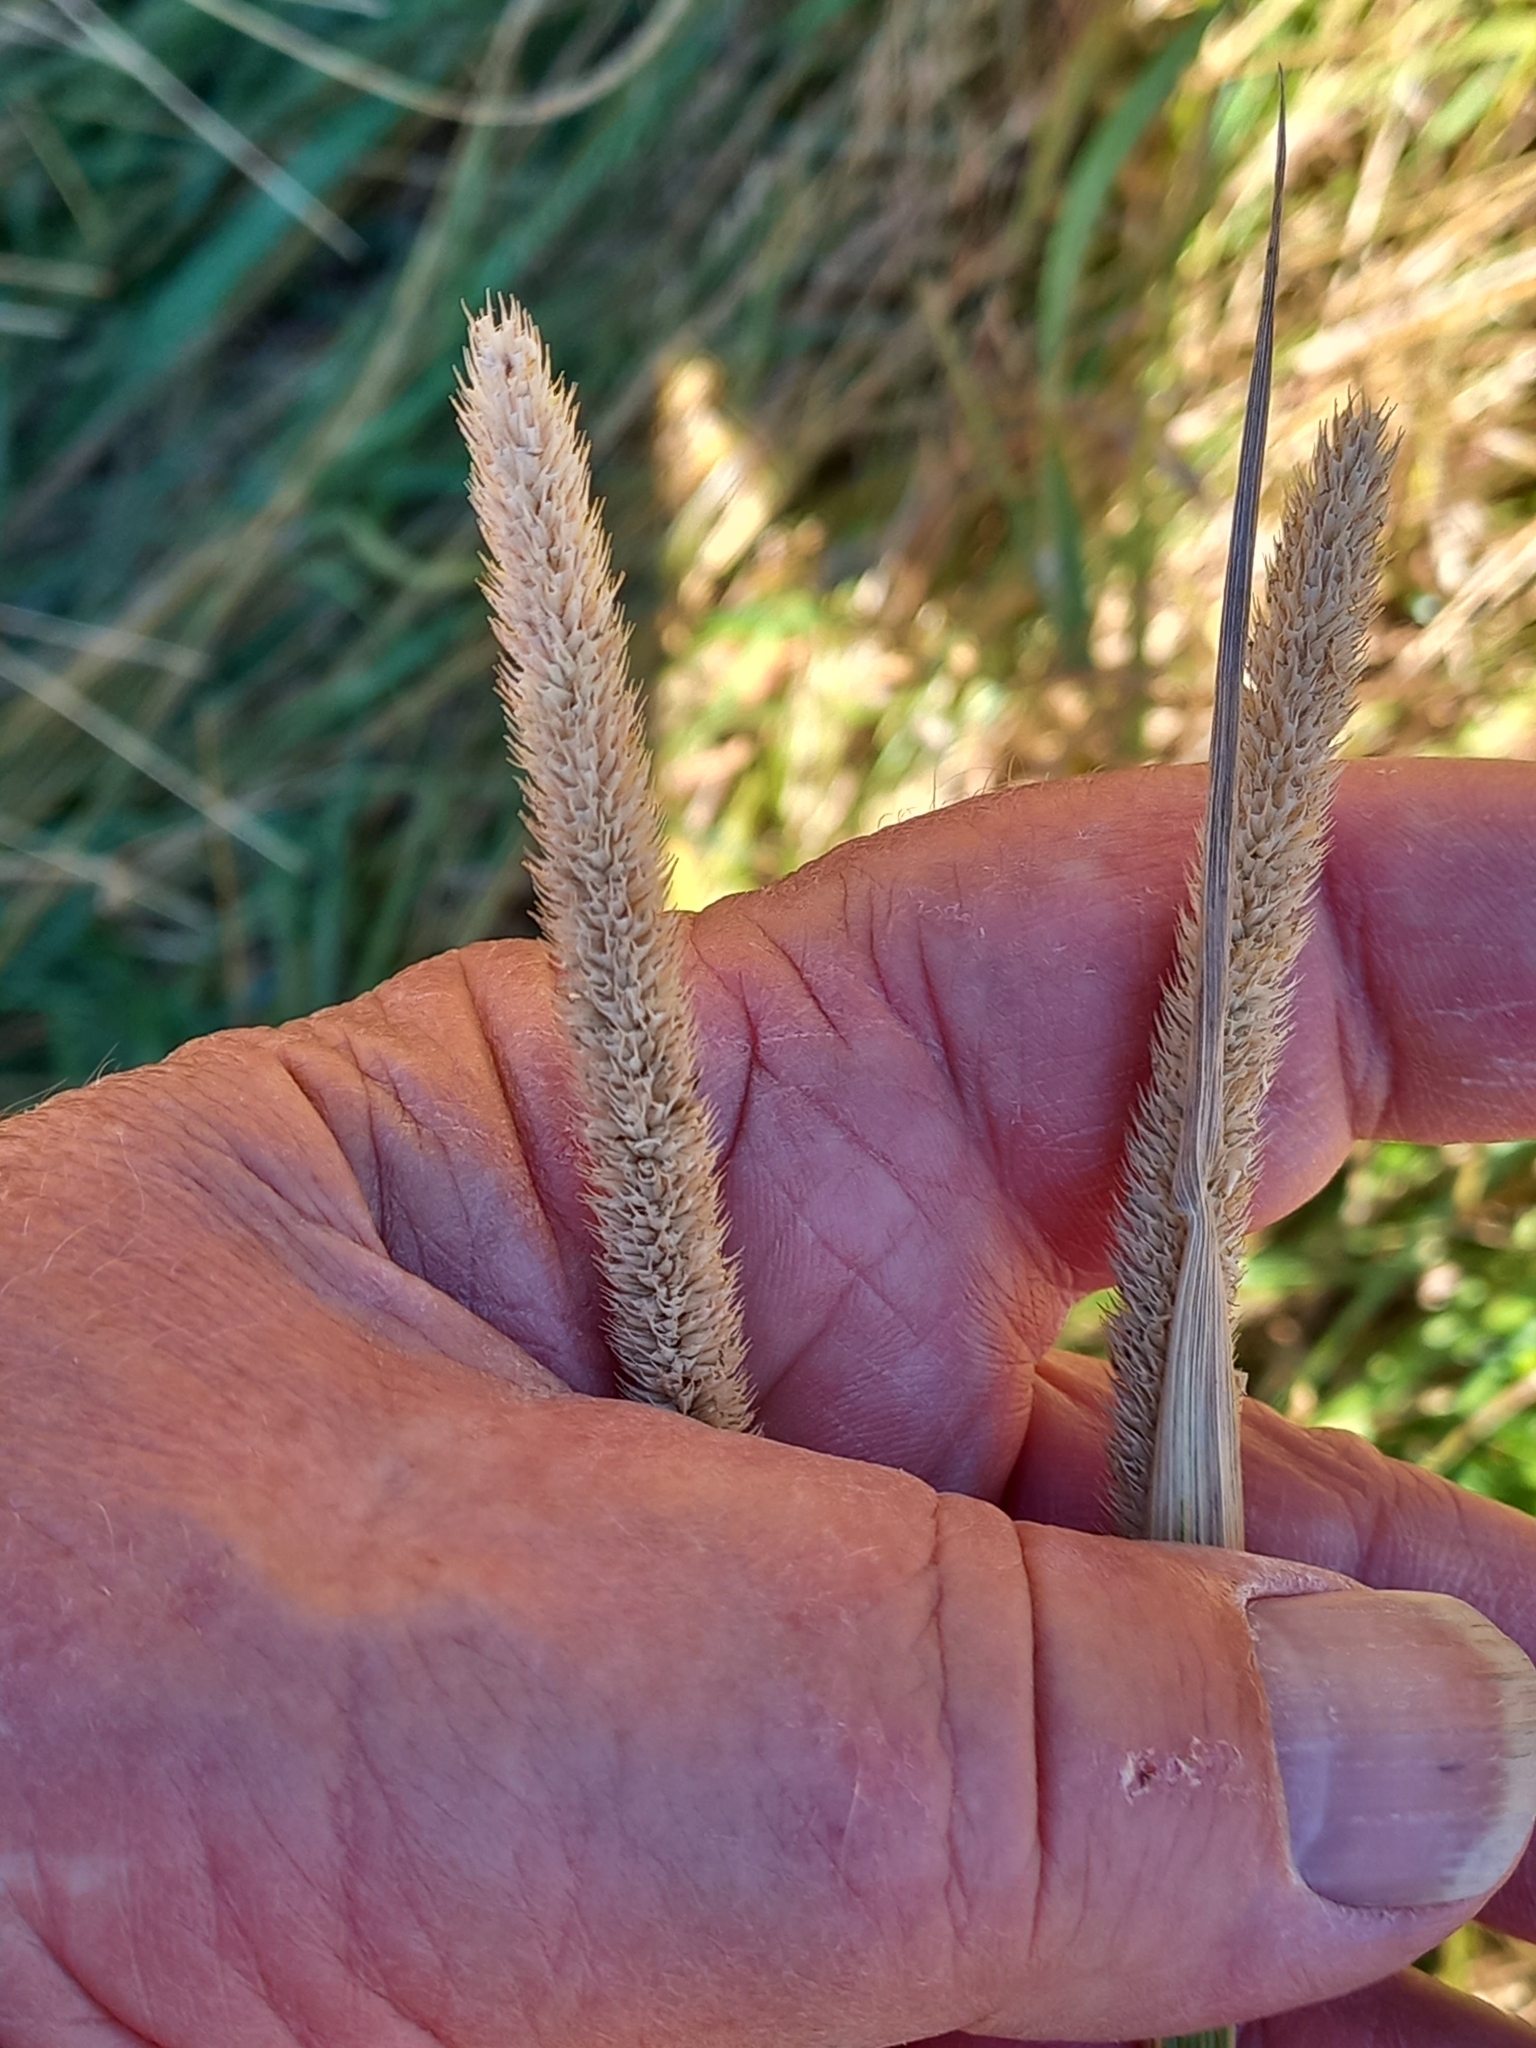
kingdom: Plantae
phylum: Tracheophyta
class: Liliopsida
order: Poales
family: Poaceae
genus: Phleum
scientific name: Phleum pratense
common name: Timothy grass
